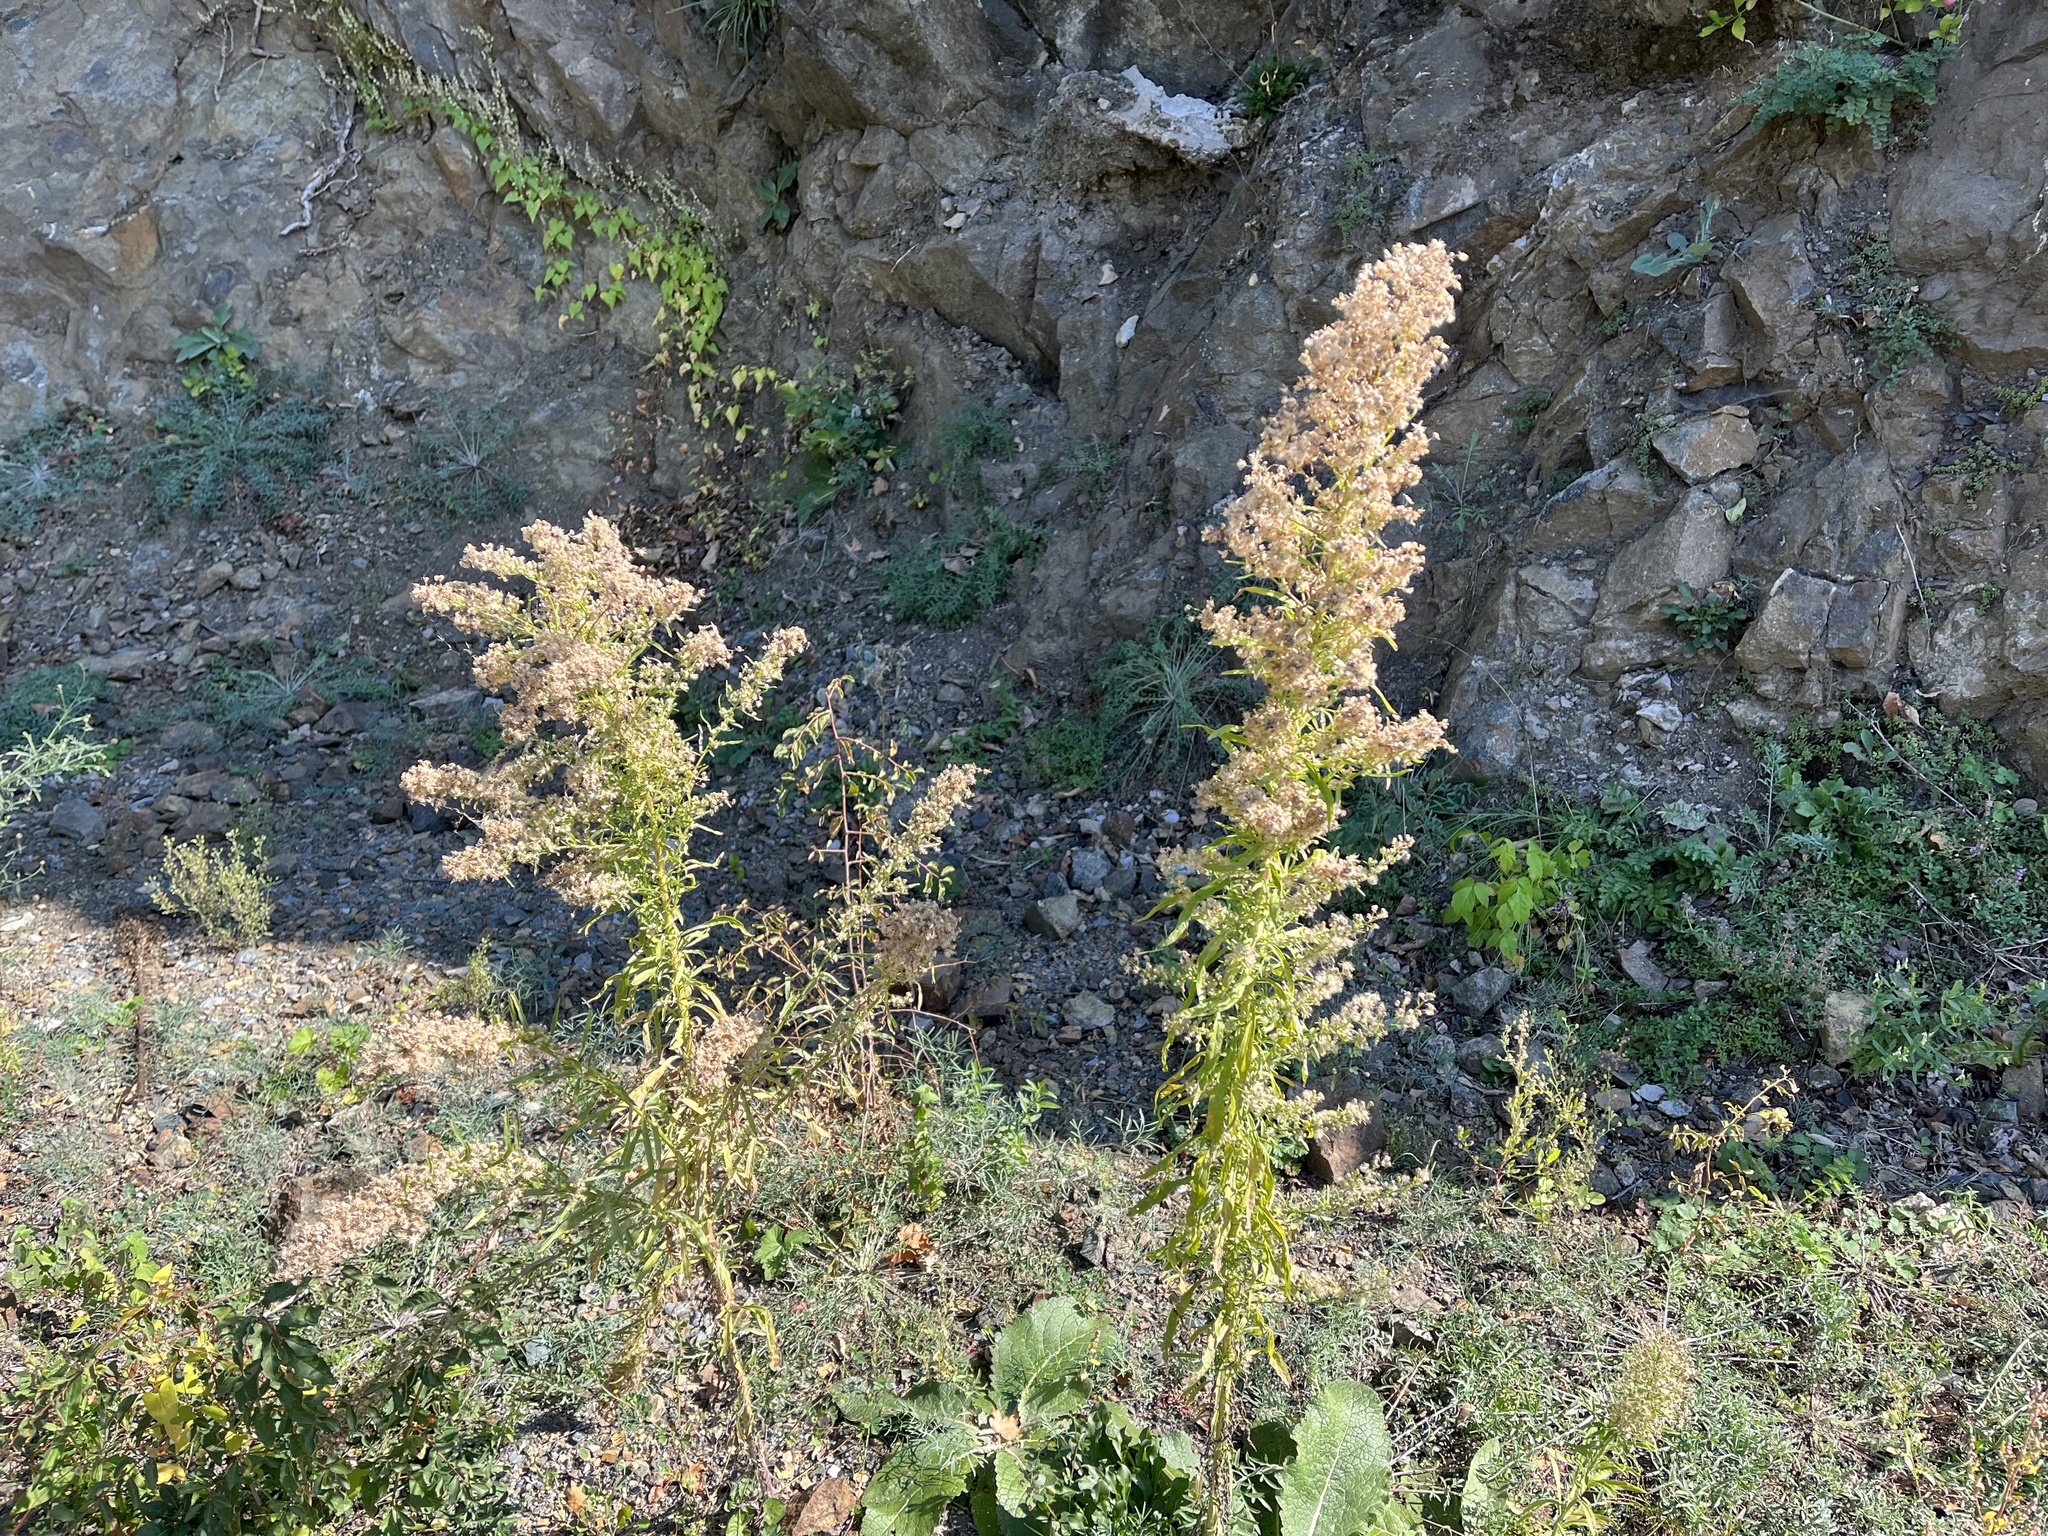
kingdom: Plantae
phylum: Tracheophyta
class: Magnoliopsida
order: Asterales
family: Asteraceae
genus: Erigeron
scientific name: Erigeron canadensis
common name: Canadian fleabane
